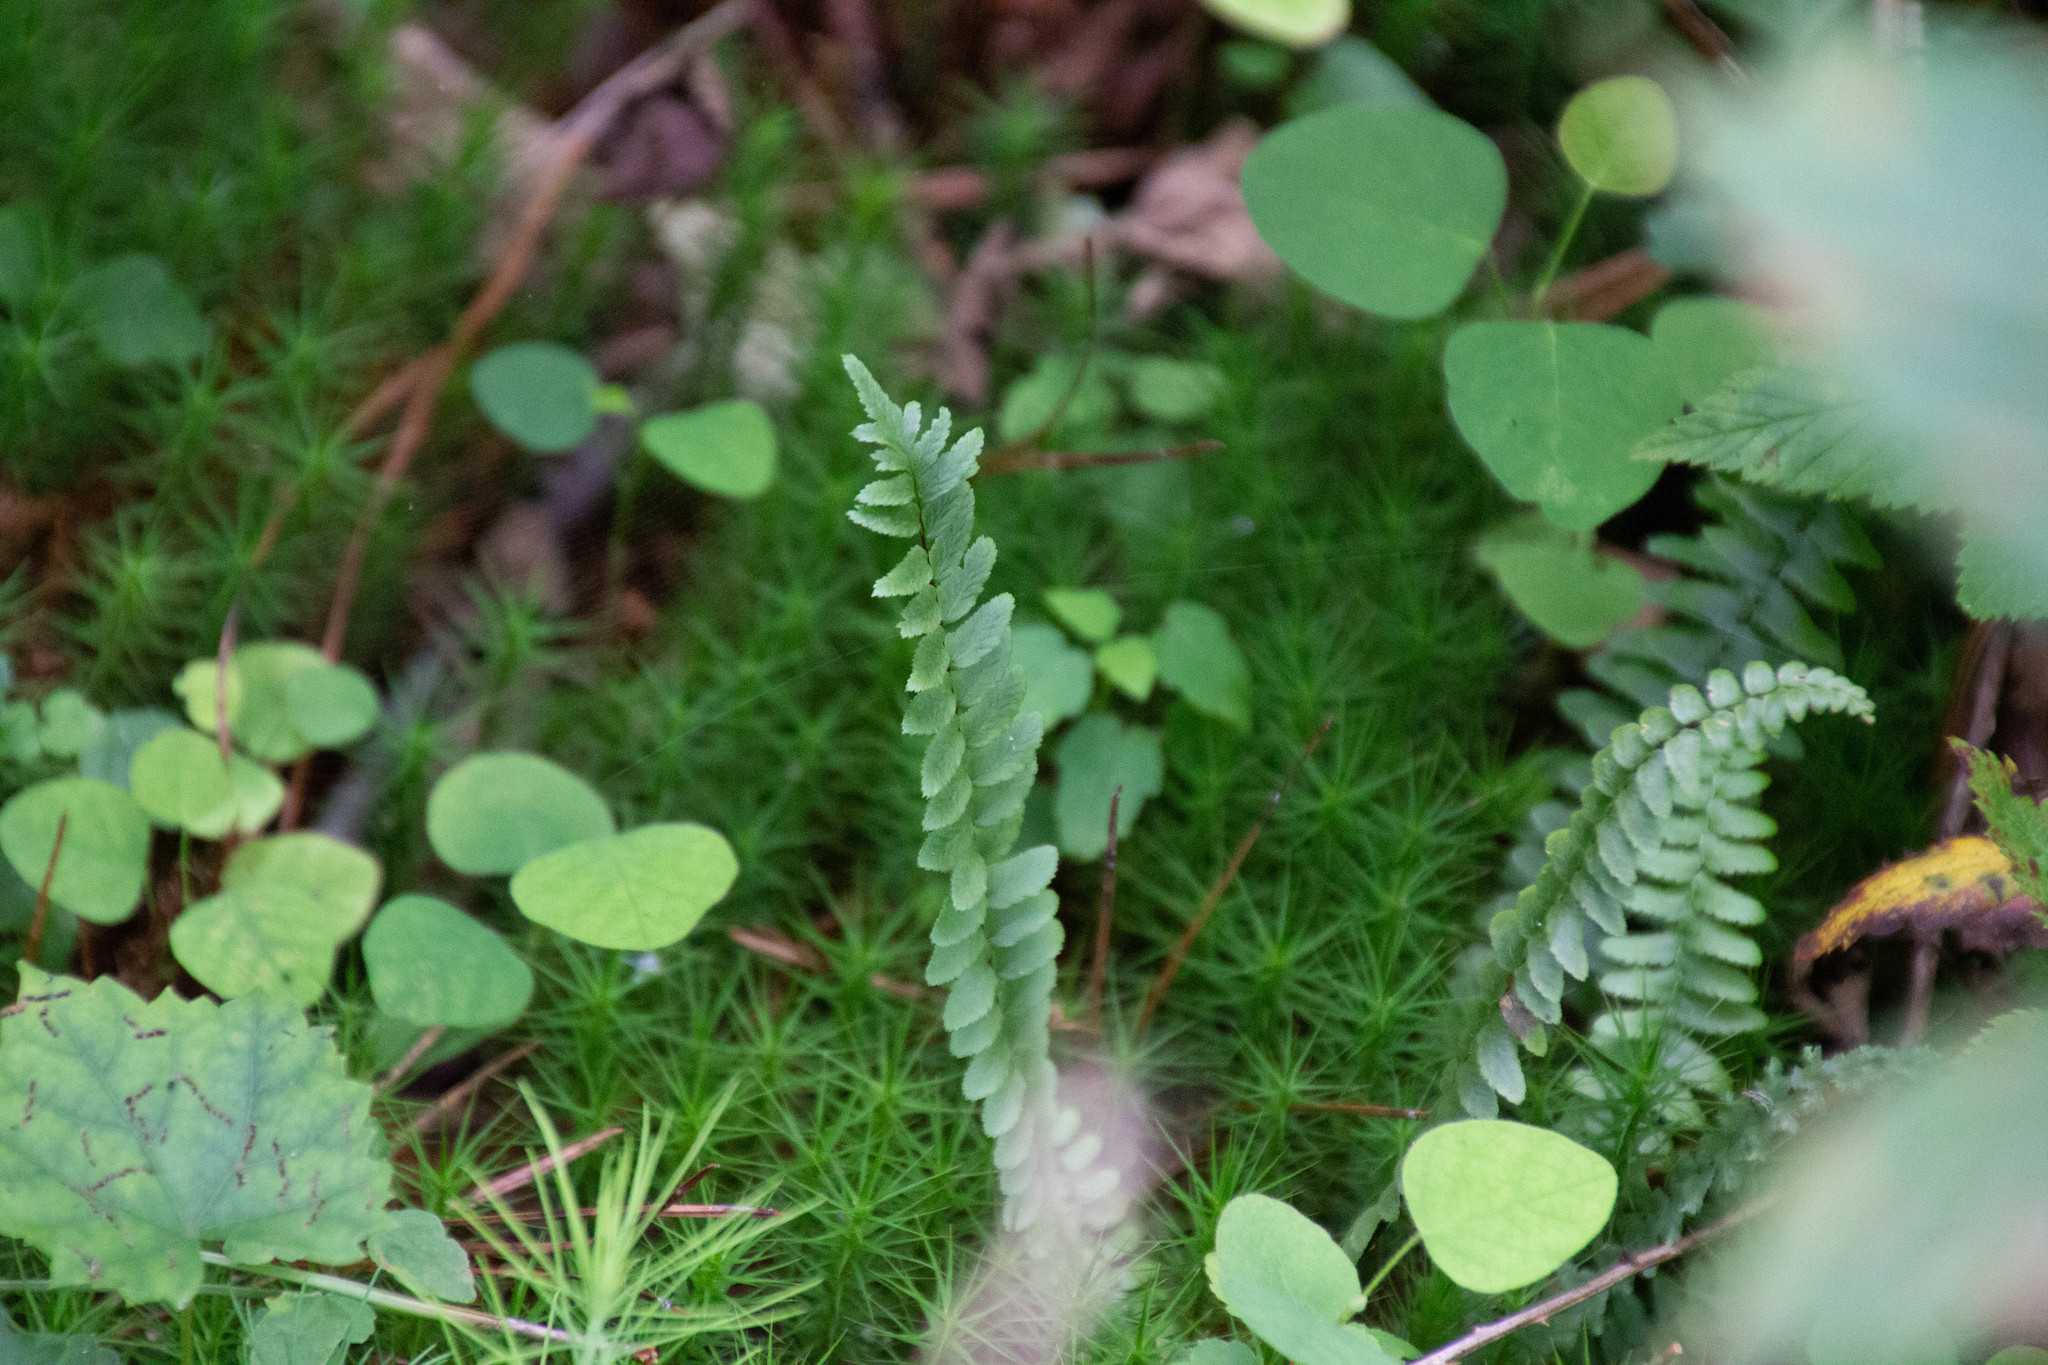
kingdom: Plantae
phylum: Tracheophyta
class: Polypodiopsida
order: Polypodiales
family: Aspleniaceae
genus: Asplenium
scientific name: Asplenium platyneuron
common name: Ebony spleenwort
